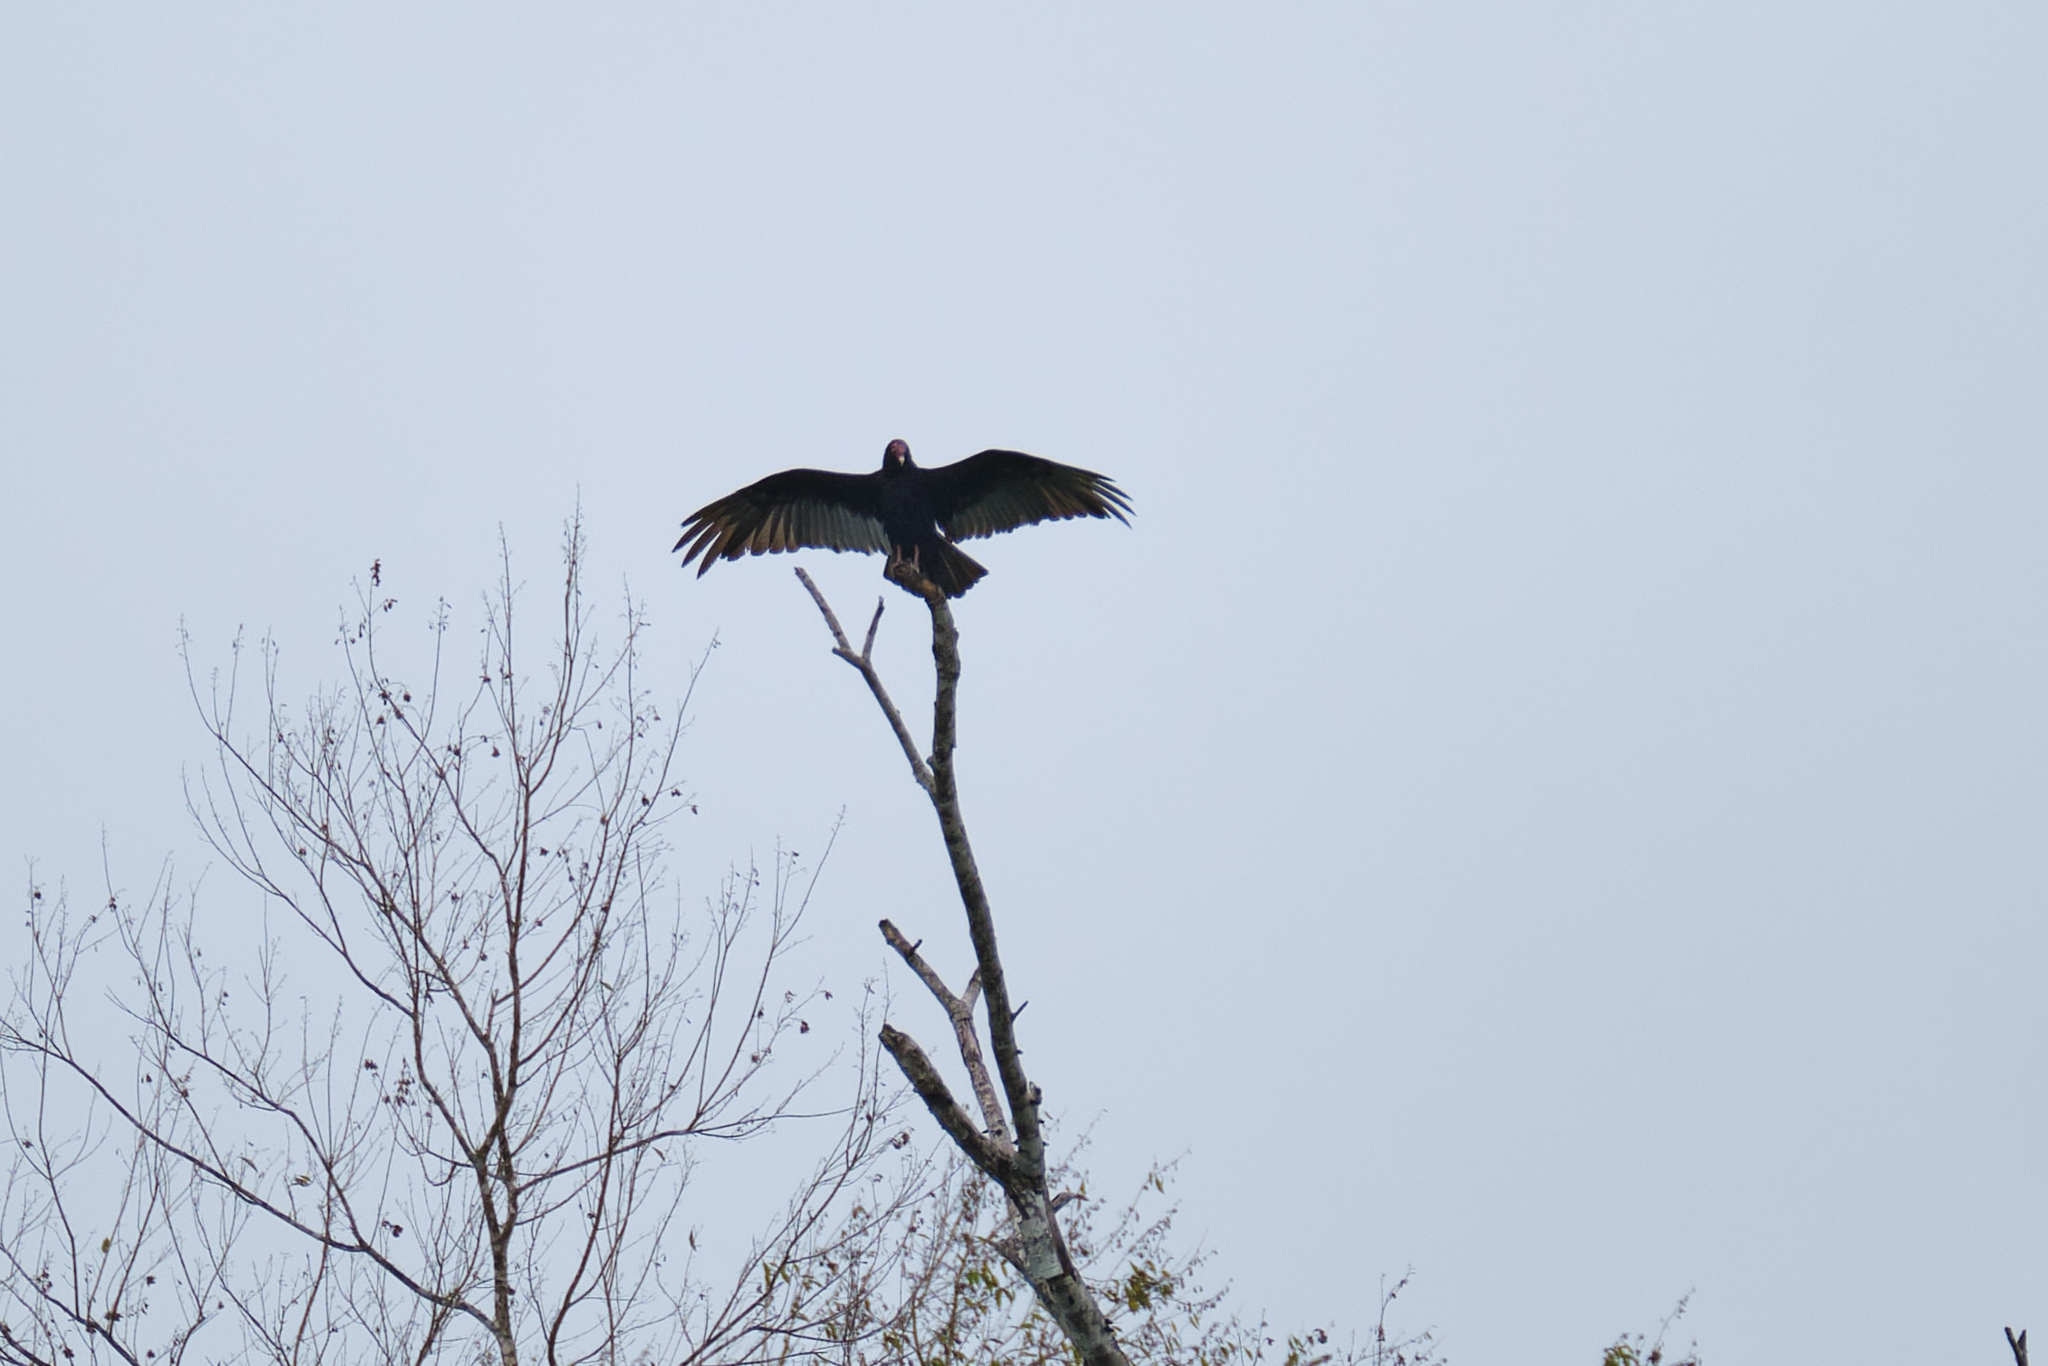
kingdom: Animalia
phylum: Chordata
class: Aves
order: Accipitriformes
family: Cathartidae
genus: Cathartes
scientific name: Cathartes aura
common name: Turkey vulture
